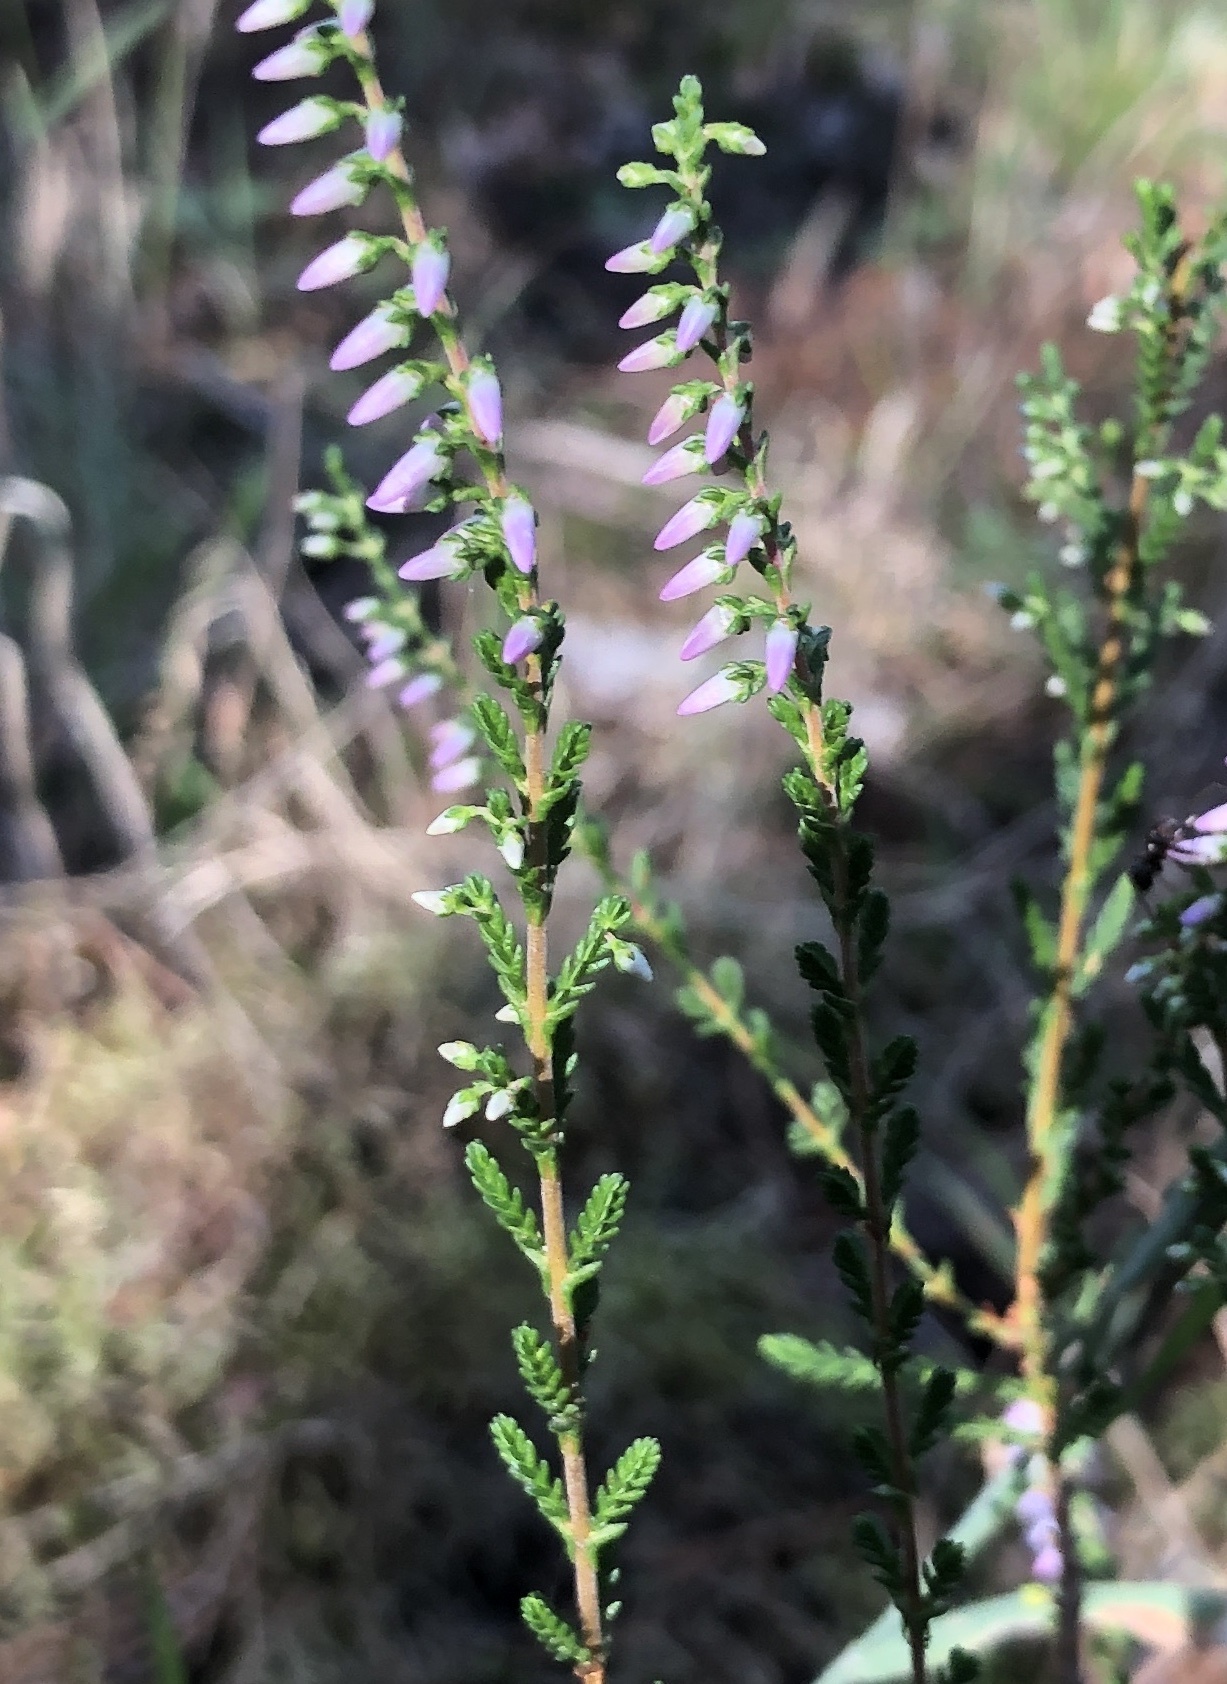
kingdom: Plantae
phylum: Tracheophyta
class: Magnoliopsida
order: Ericales
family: Ericaceae
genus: Calluna
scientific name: Calluna vulgaris
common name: Heather
